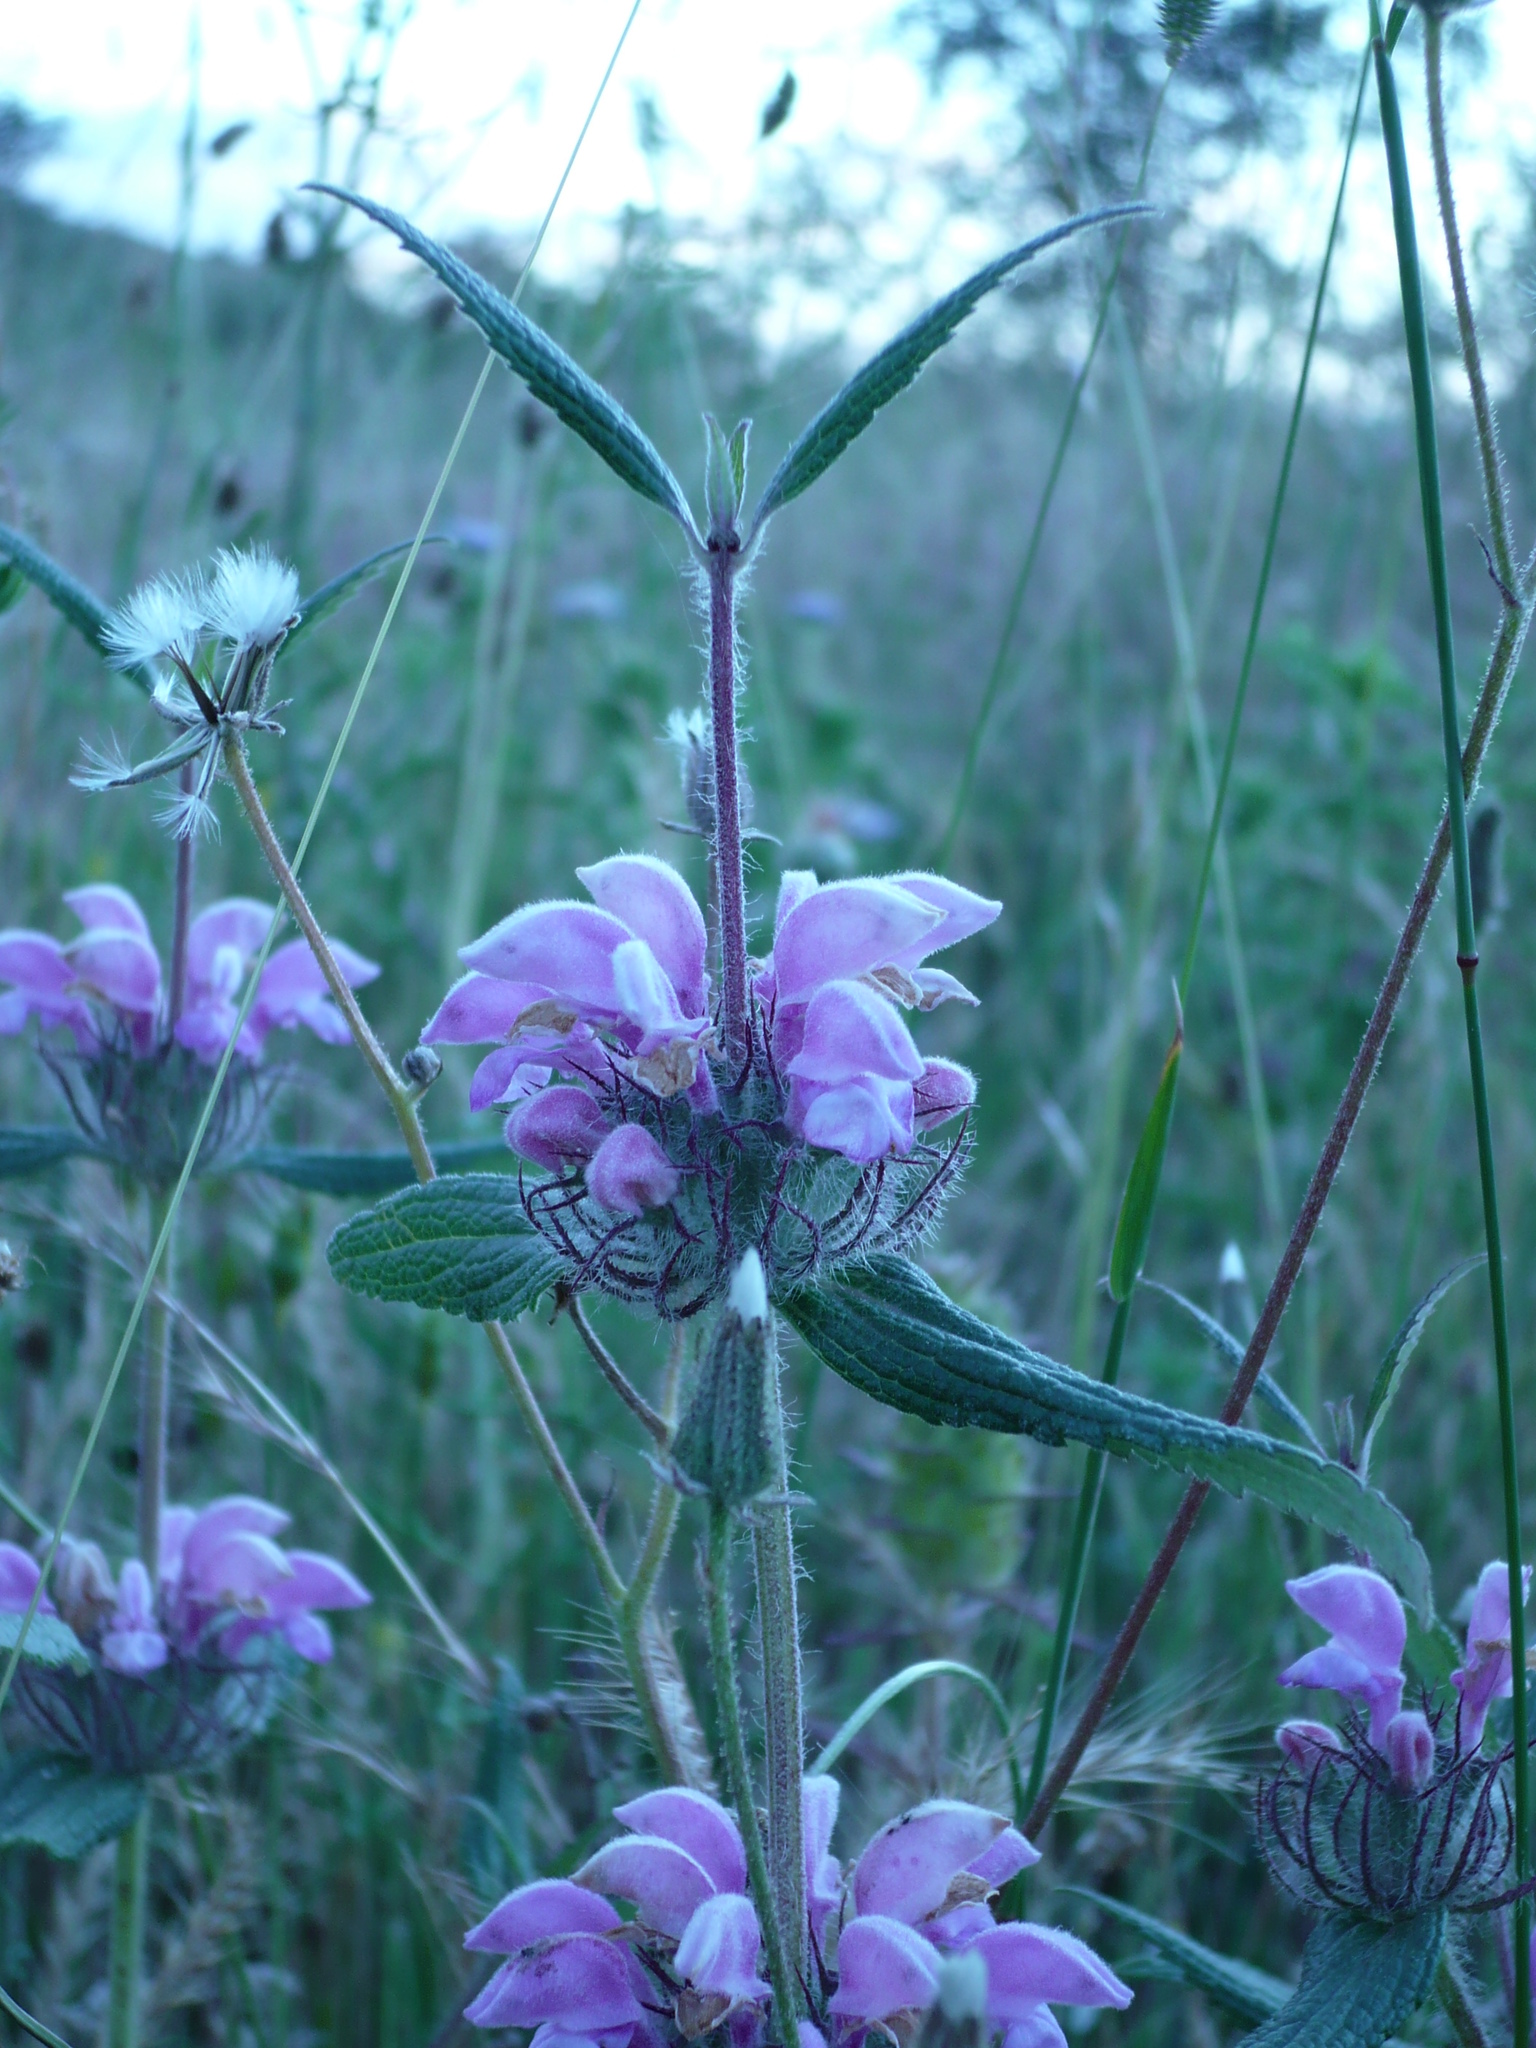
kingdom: Plantae
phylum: Tracheophyta
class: Magnoliopsida
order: Lamiales
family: Lamiaceae
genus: Phlomis
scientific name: Phlomis herba-venti
